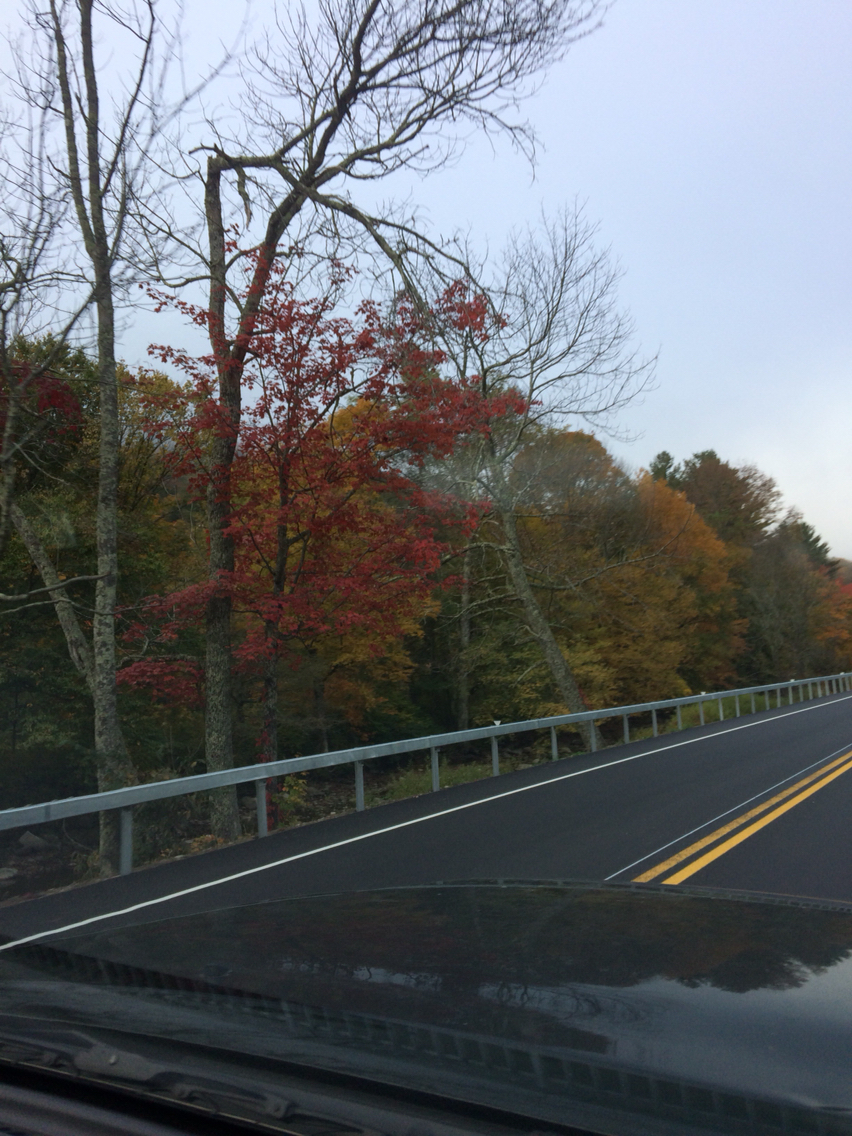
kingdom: Plantae
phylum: Tracheophyta
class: Magnoliopsida
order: Sapindales
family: Sapindaceae
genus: Acer
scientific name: Acer rubrum
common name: Red maple
